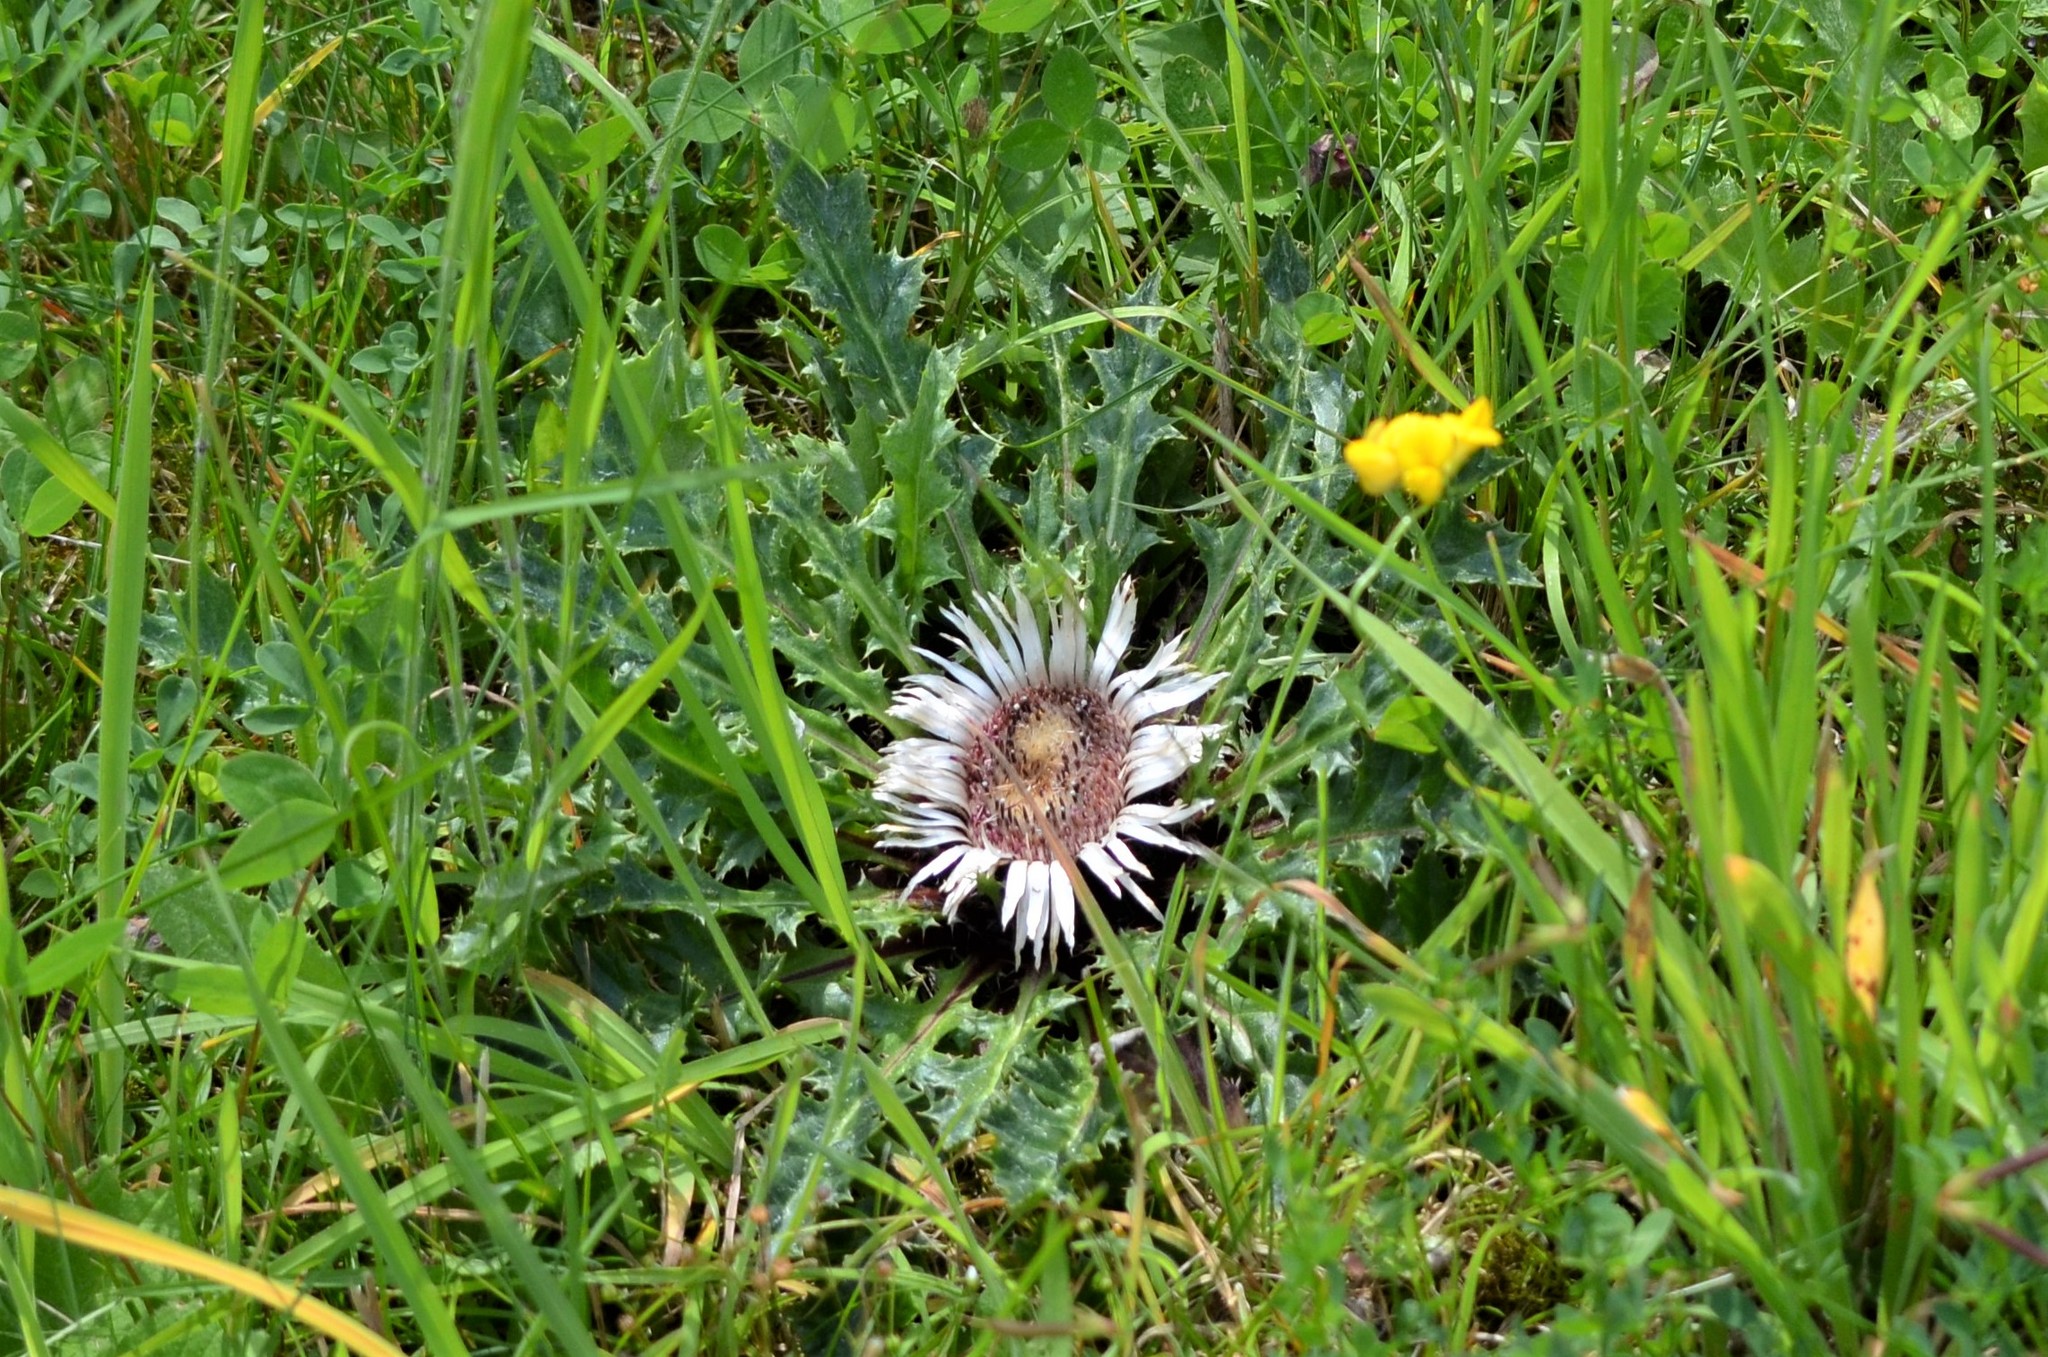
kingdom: Plantae
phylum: Tracheophyta
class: Magnoliopsida
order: Asterales
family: Asteraceae
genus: Carlina
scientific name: Carlina acaulis
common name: Stemless carline thistle
